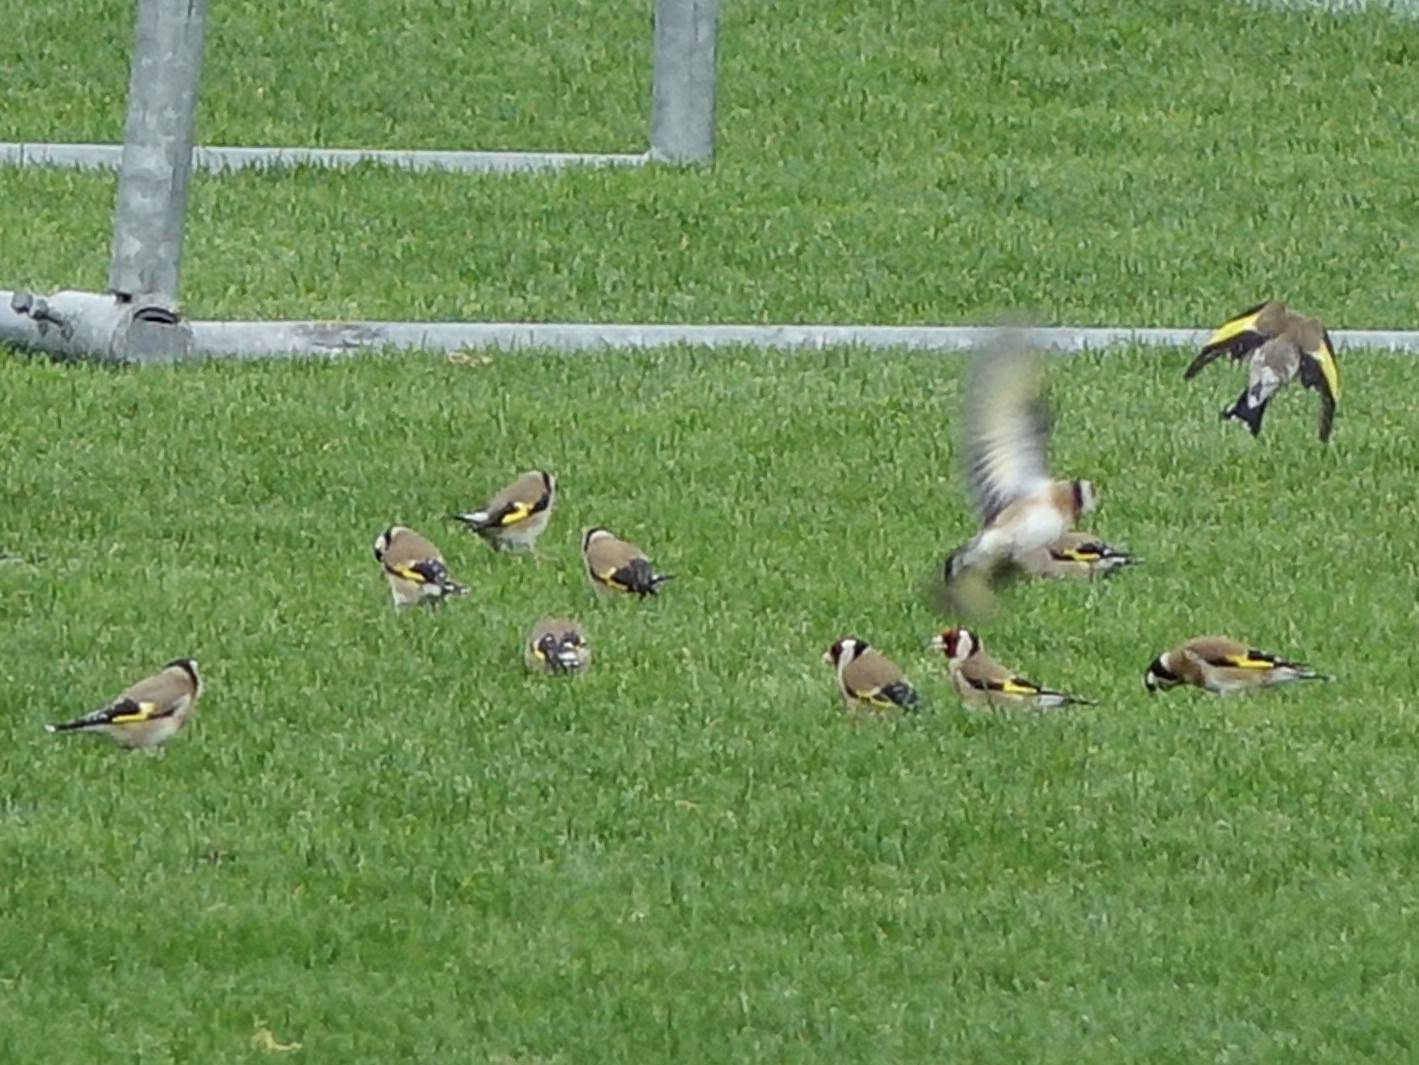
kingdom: Animalia
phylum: Chordata
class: Aves
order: Passeriformes
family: Fringillidae
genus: Carduelis
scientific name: Carduelis carduelis
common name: European goldfinch
